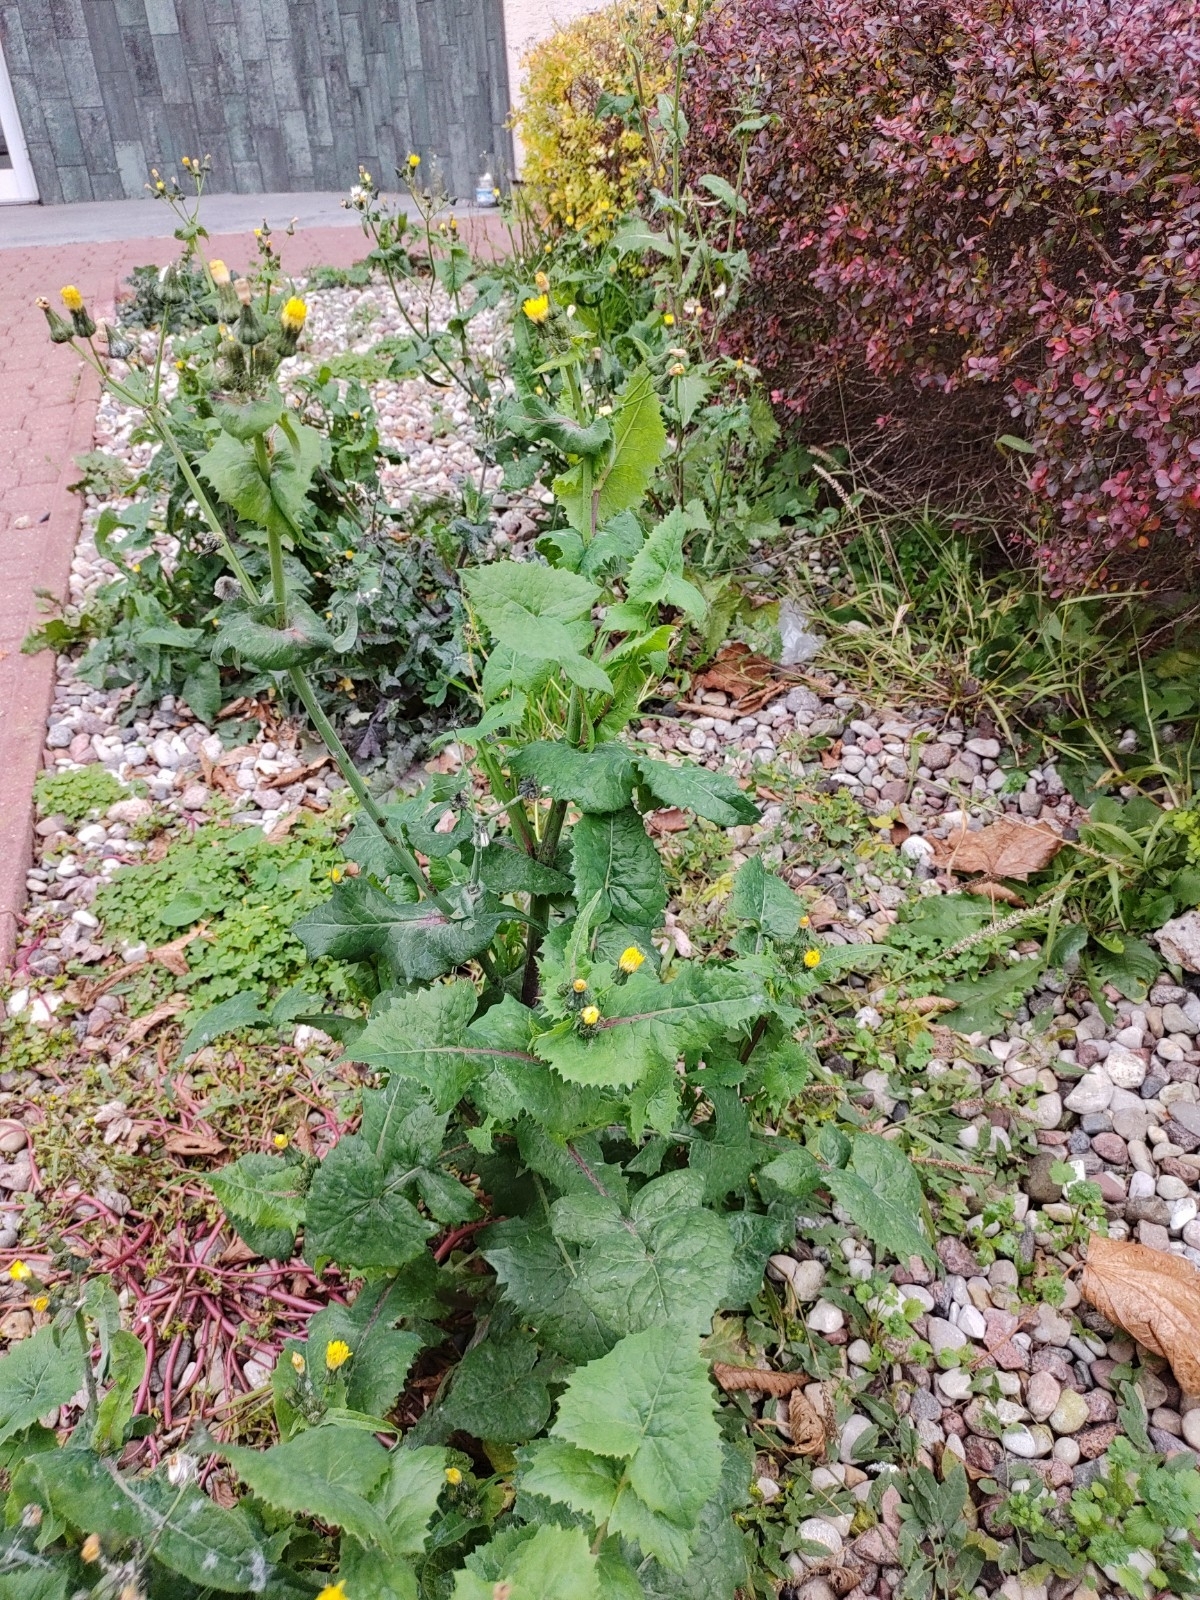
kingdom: Plantae
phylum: Tracheophyta
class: Magnoliopsida
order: Asterales
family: Asteraceae
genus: Sonchus
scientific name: Sonchus oleraceus
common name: Common sowthistle
